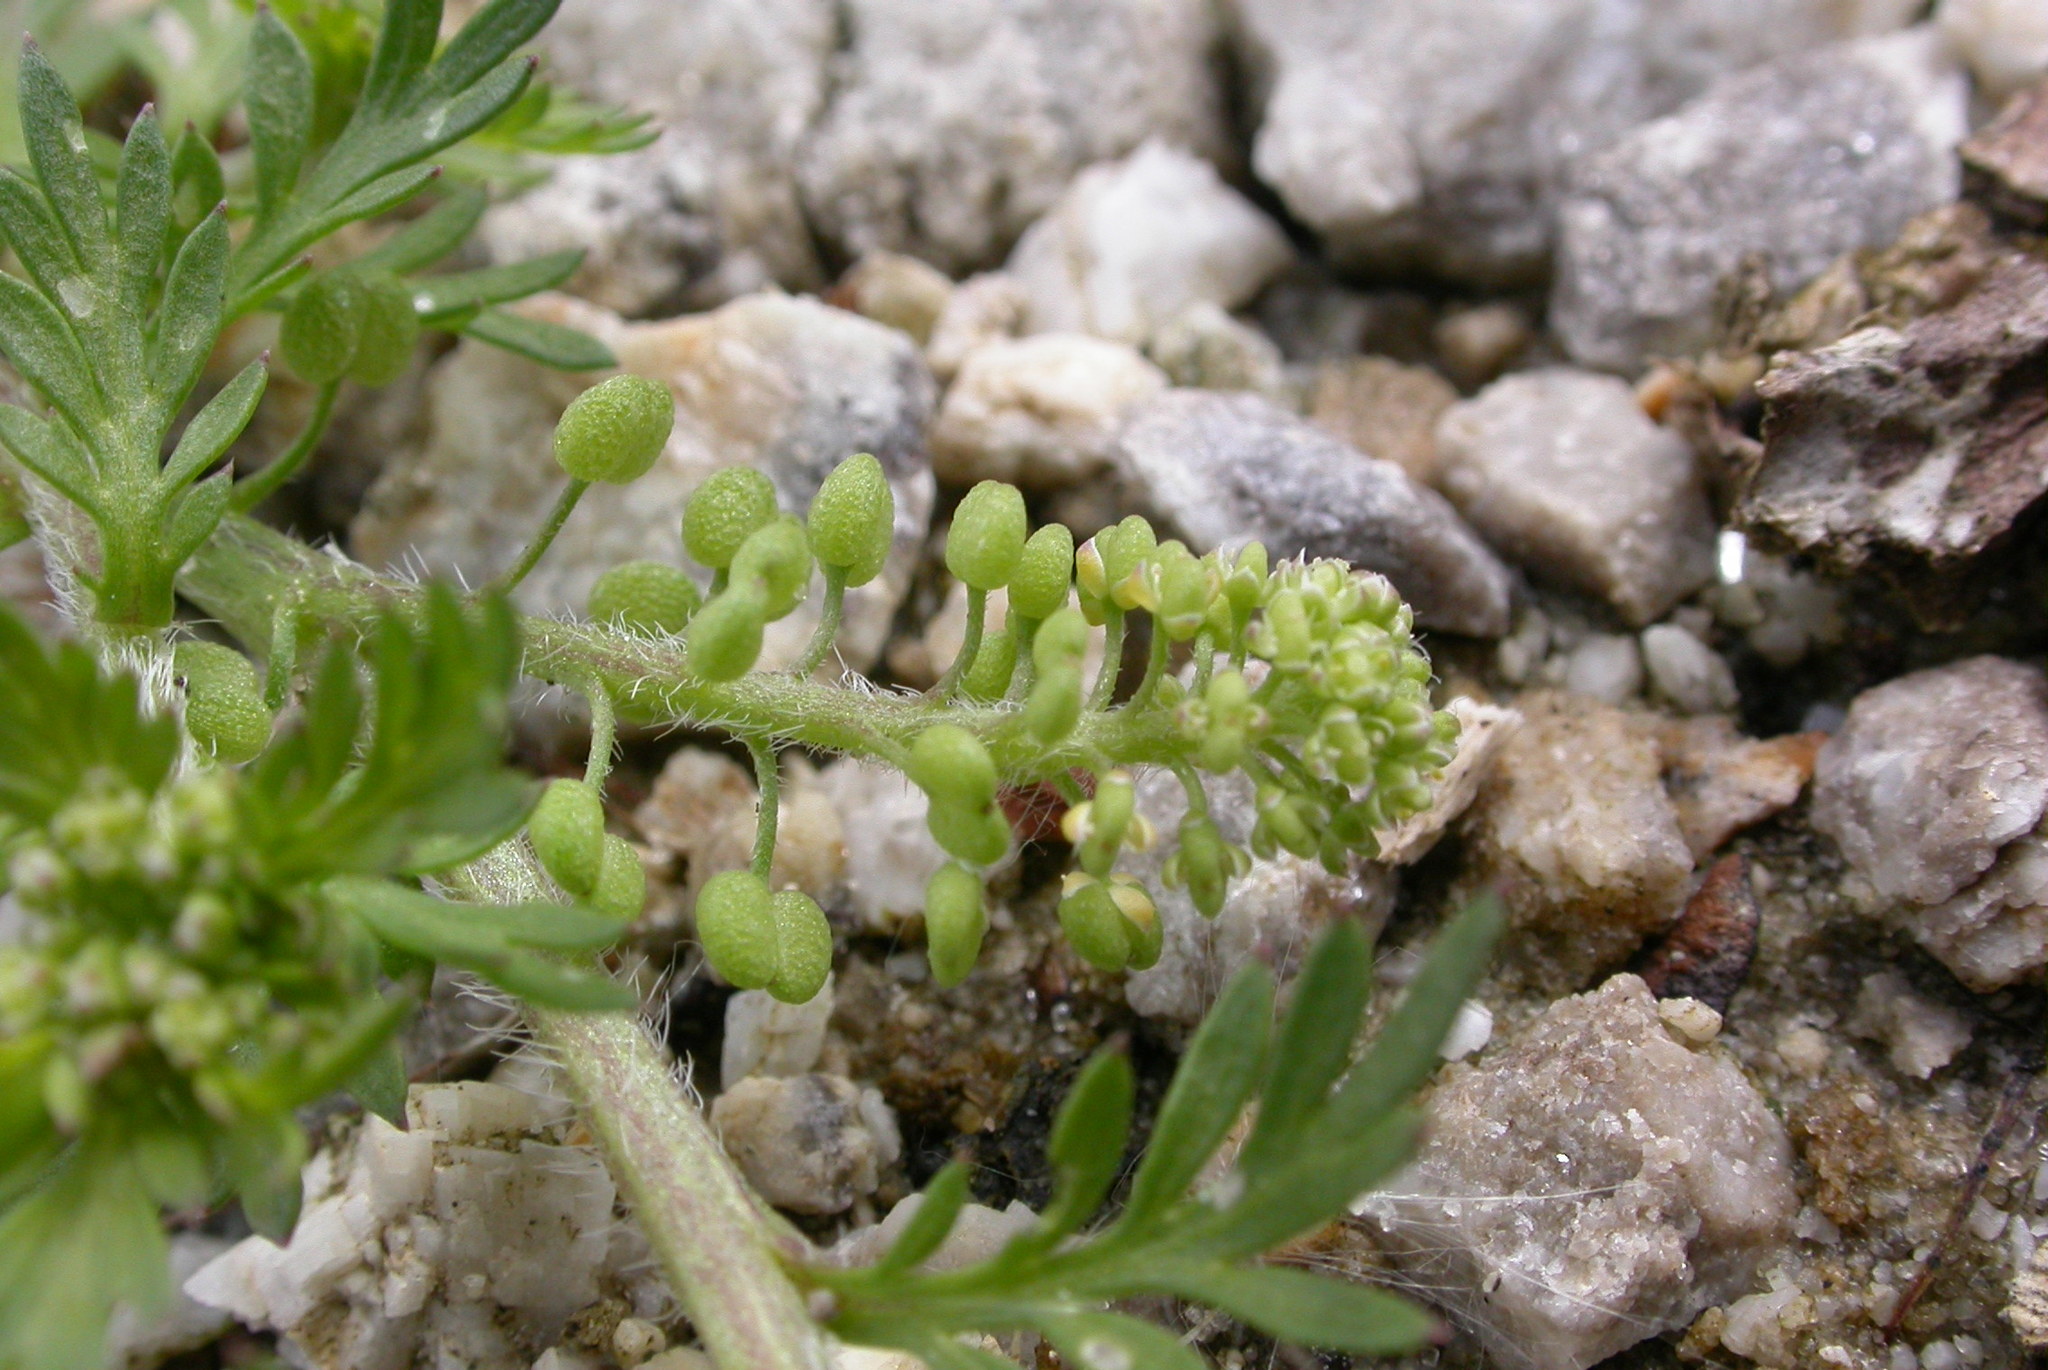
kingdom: Plantae
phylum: Tracheophyta
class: Magnoliopsida
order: Brassicales
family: Brassicaceae
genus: Lepidium
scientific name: Lepidium didymum
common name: Lesser swinecress
